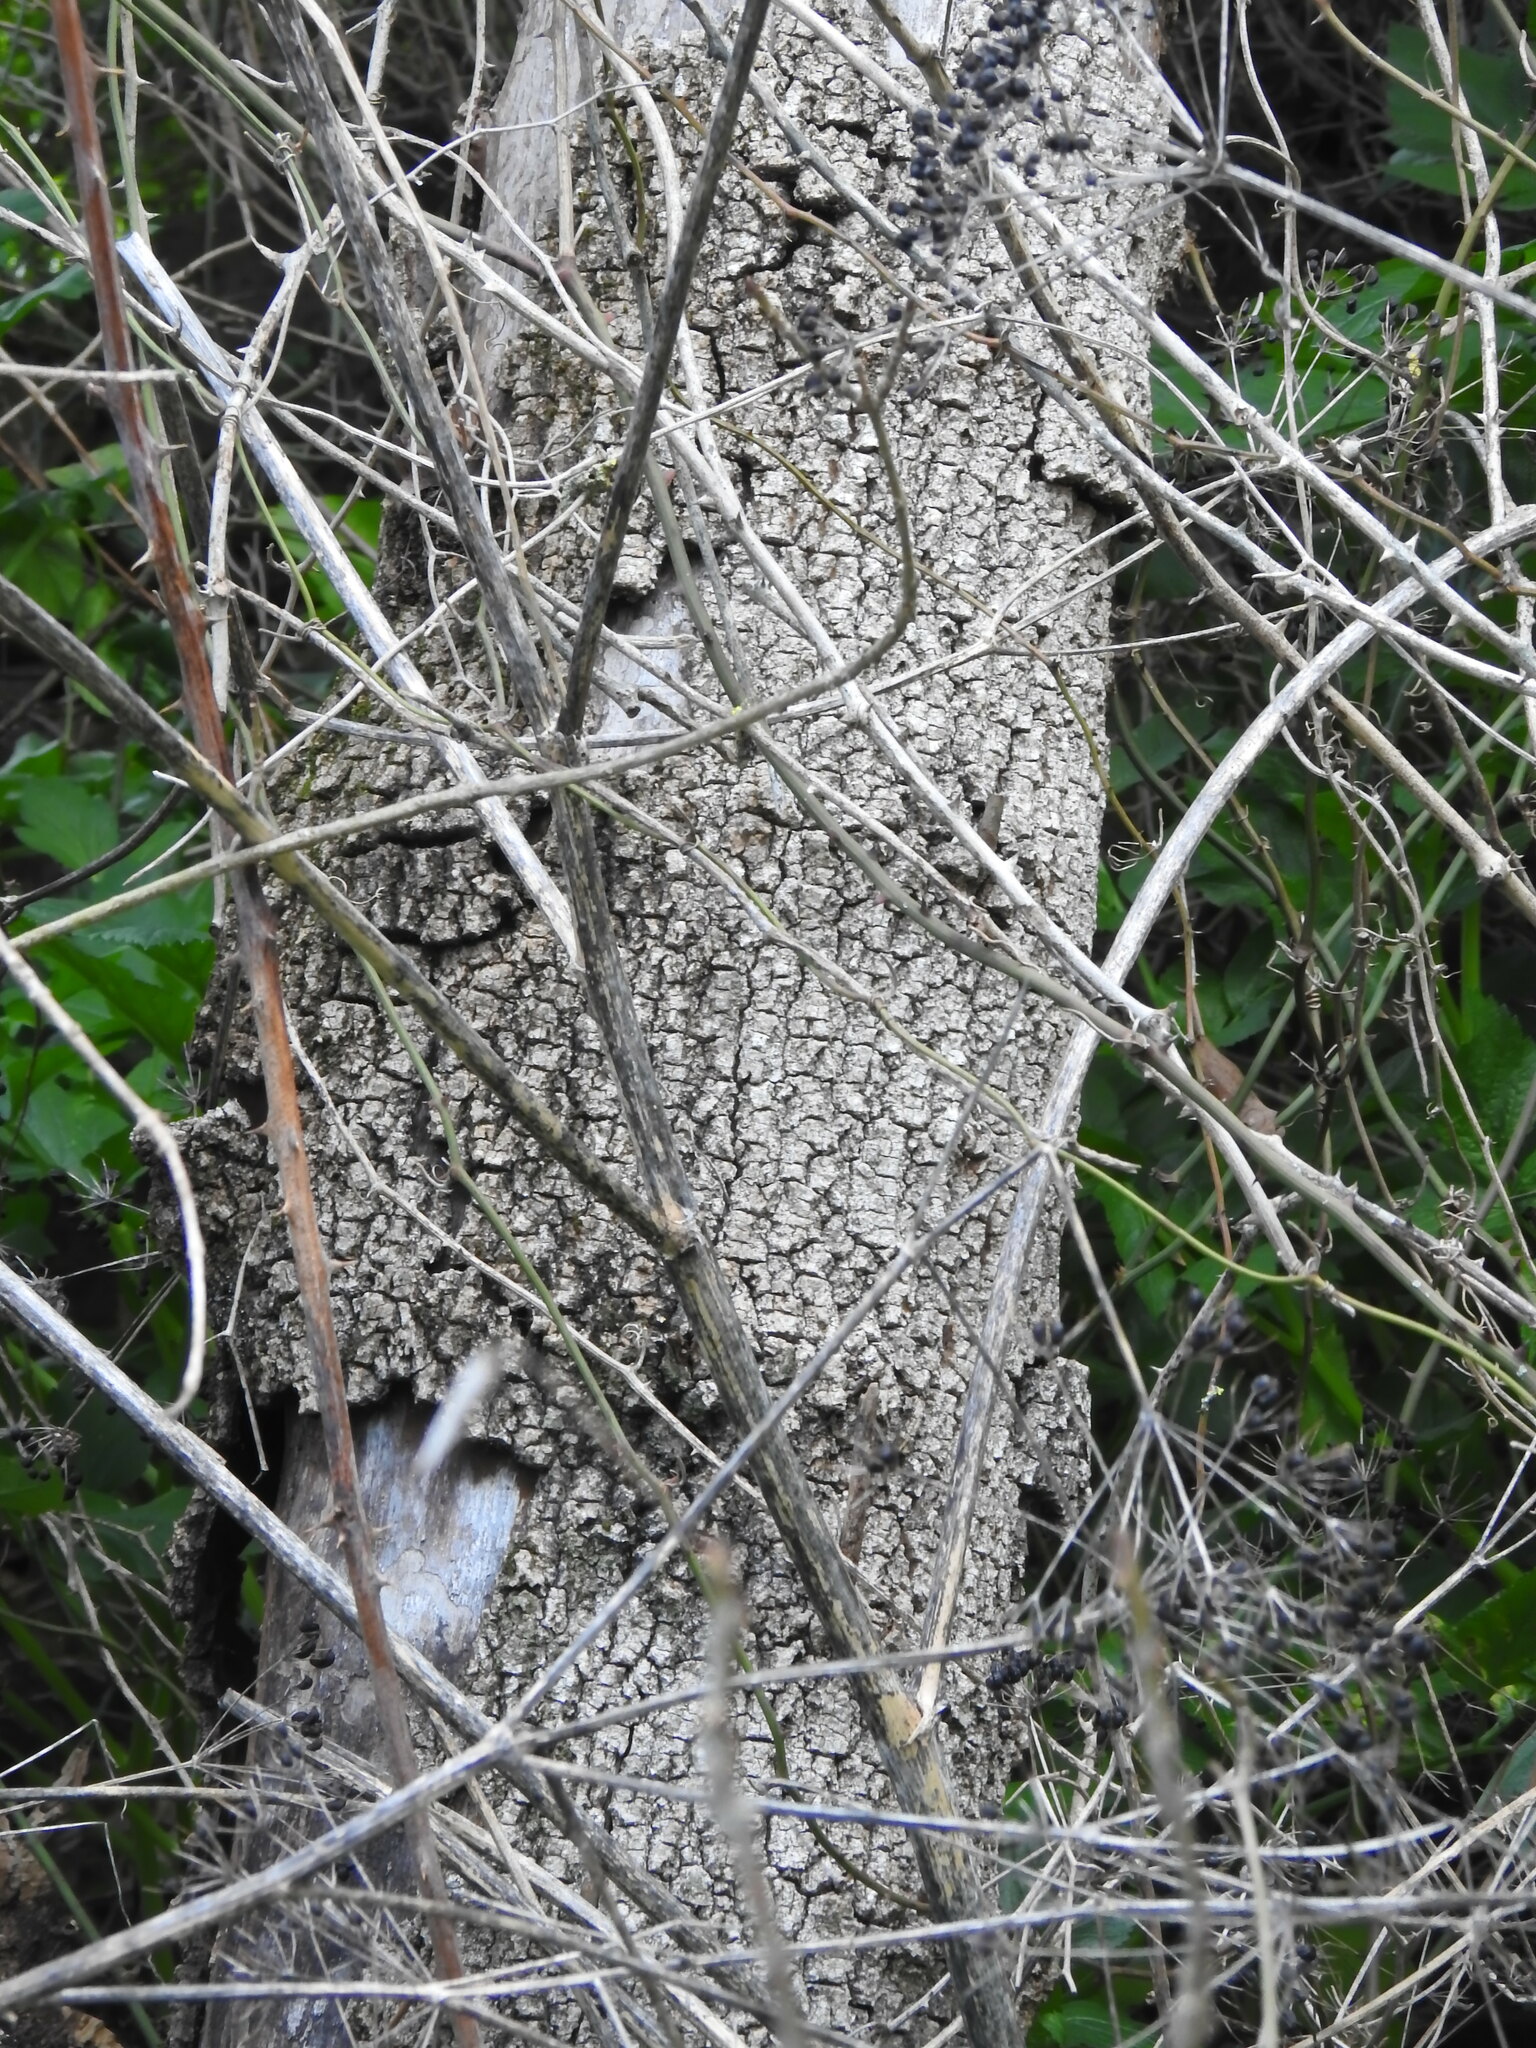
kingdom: Plantae
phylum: Tracheophyta
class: Magnoliopsida
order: Lamiales
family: Oleaceae
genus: Fraxinus
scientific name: Fraxinus angustifolia
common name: Narrow-leafed ash
